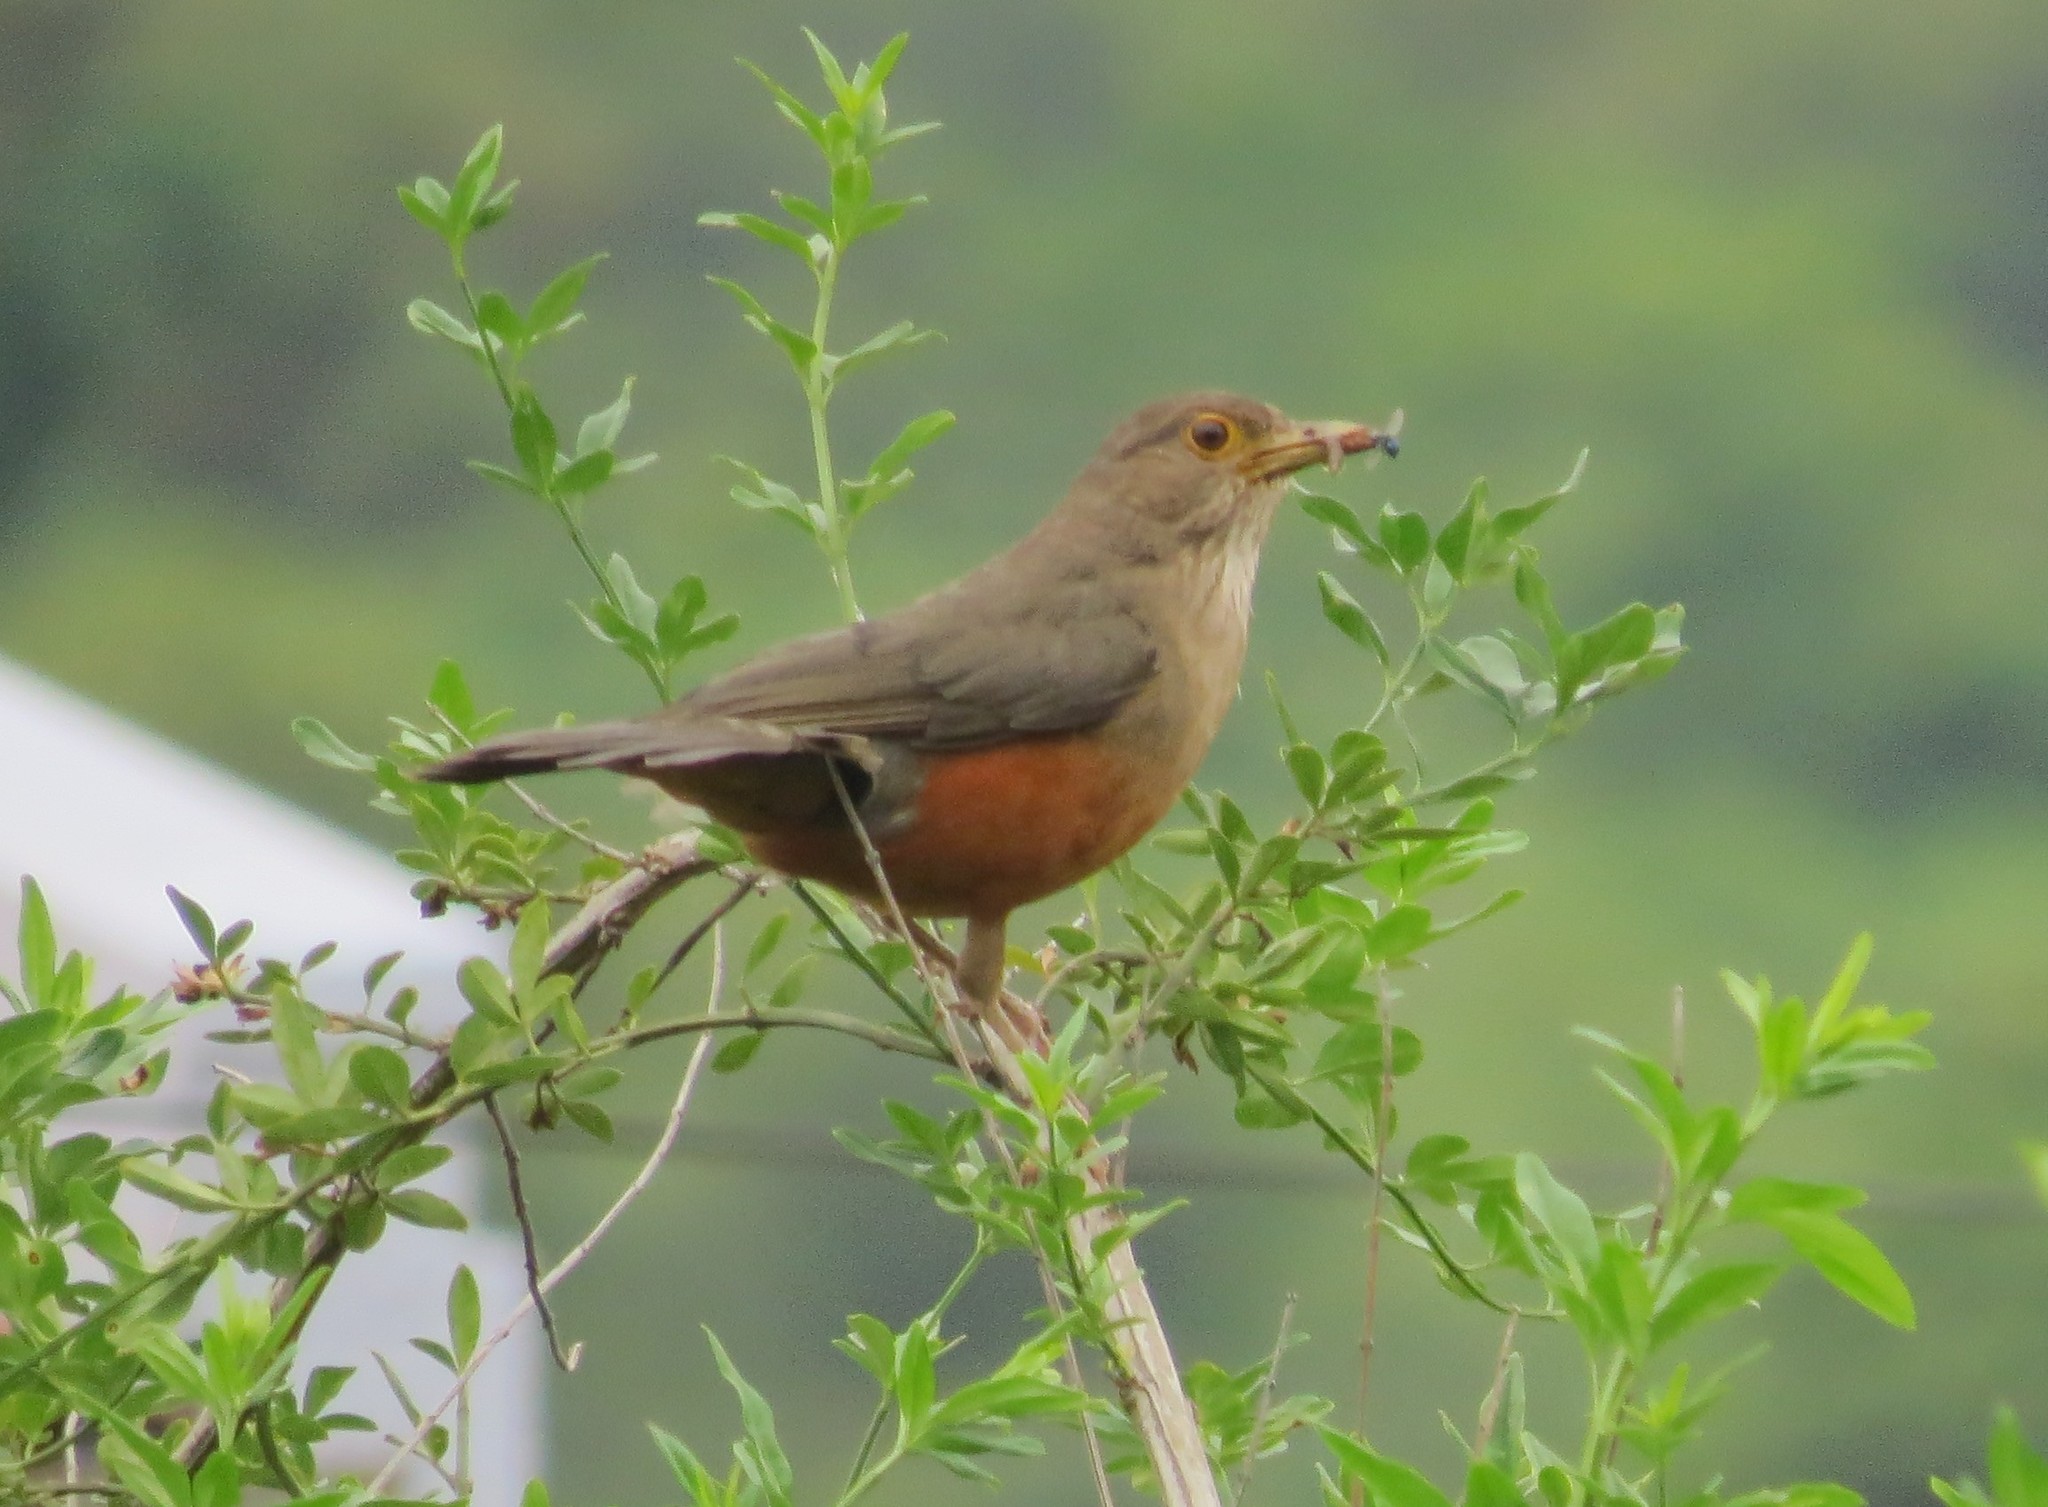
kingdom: Animalia
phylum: Chordata
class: Aves
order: Passeriformes
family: Turdidae
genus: Turdus
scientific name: Turdus rufiventris
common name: Rufous-bellied thrush
